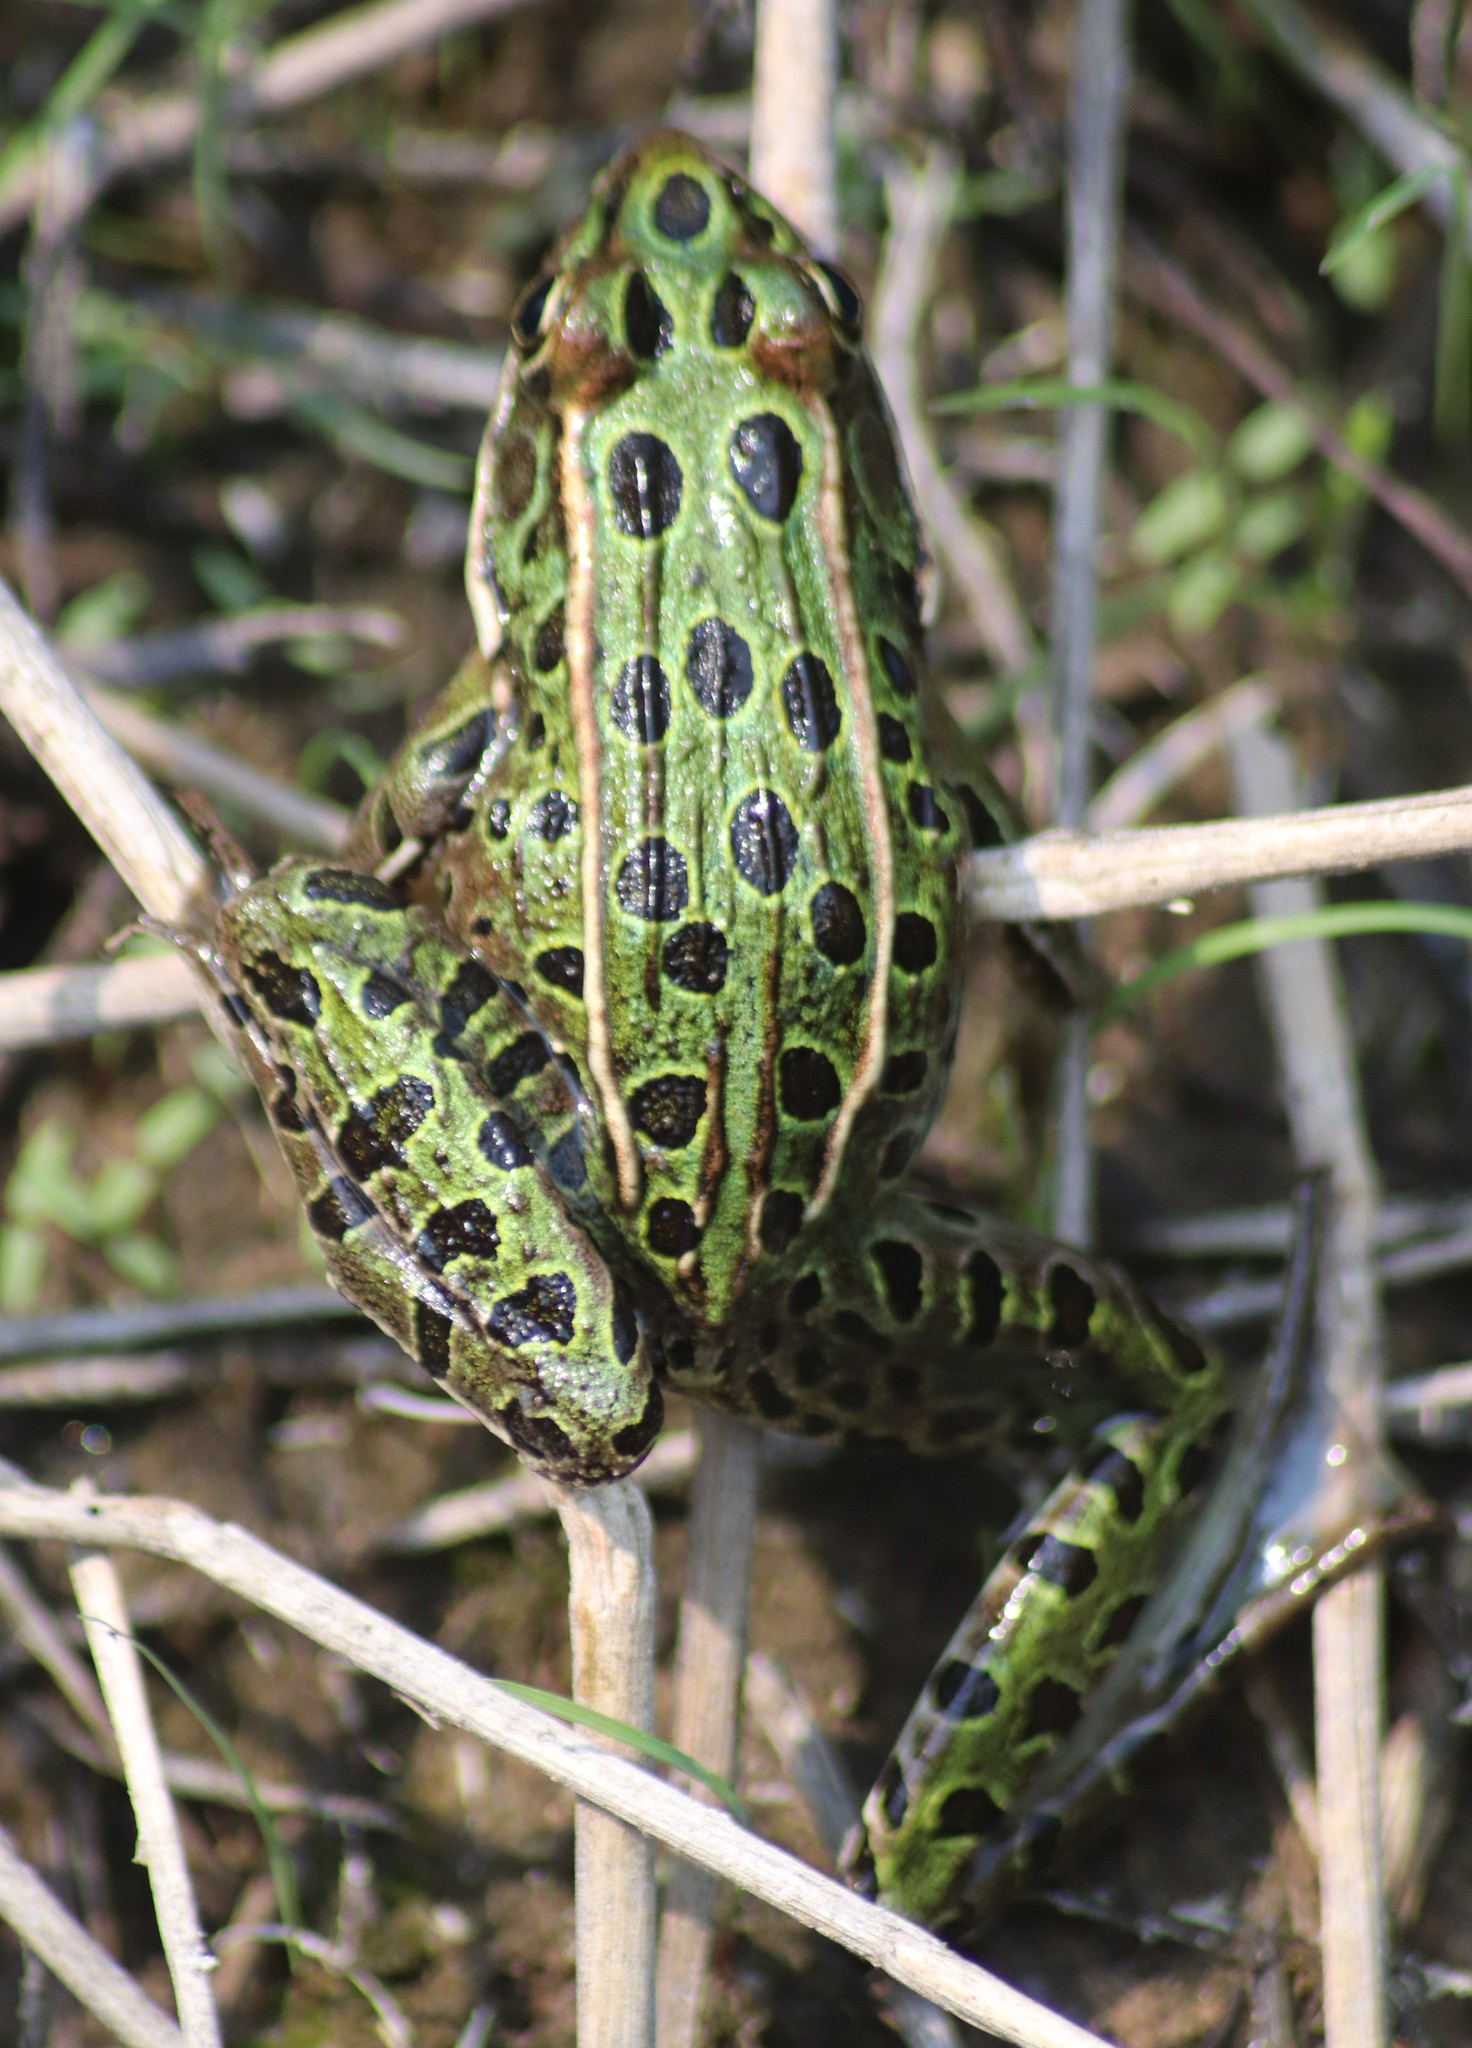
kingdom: Animalia
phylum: Chordata
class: Amphibia
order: Anura
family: Ranidae
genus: Lithobates
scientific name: Lithobates pipiens
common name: Northern leopard frog
